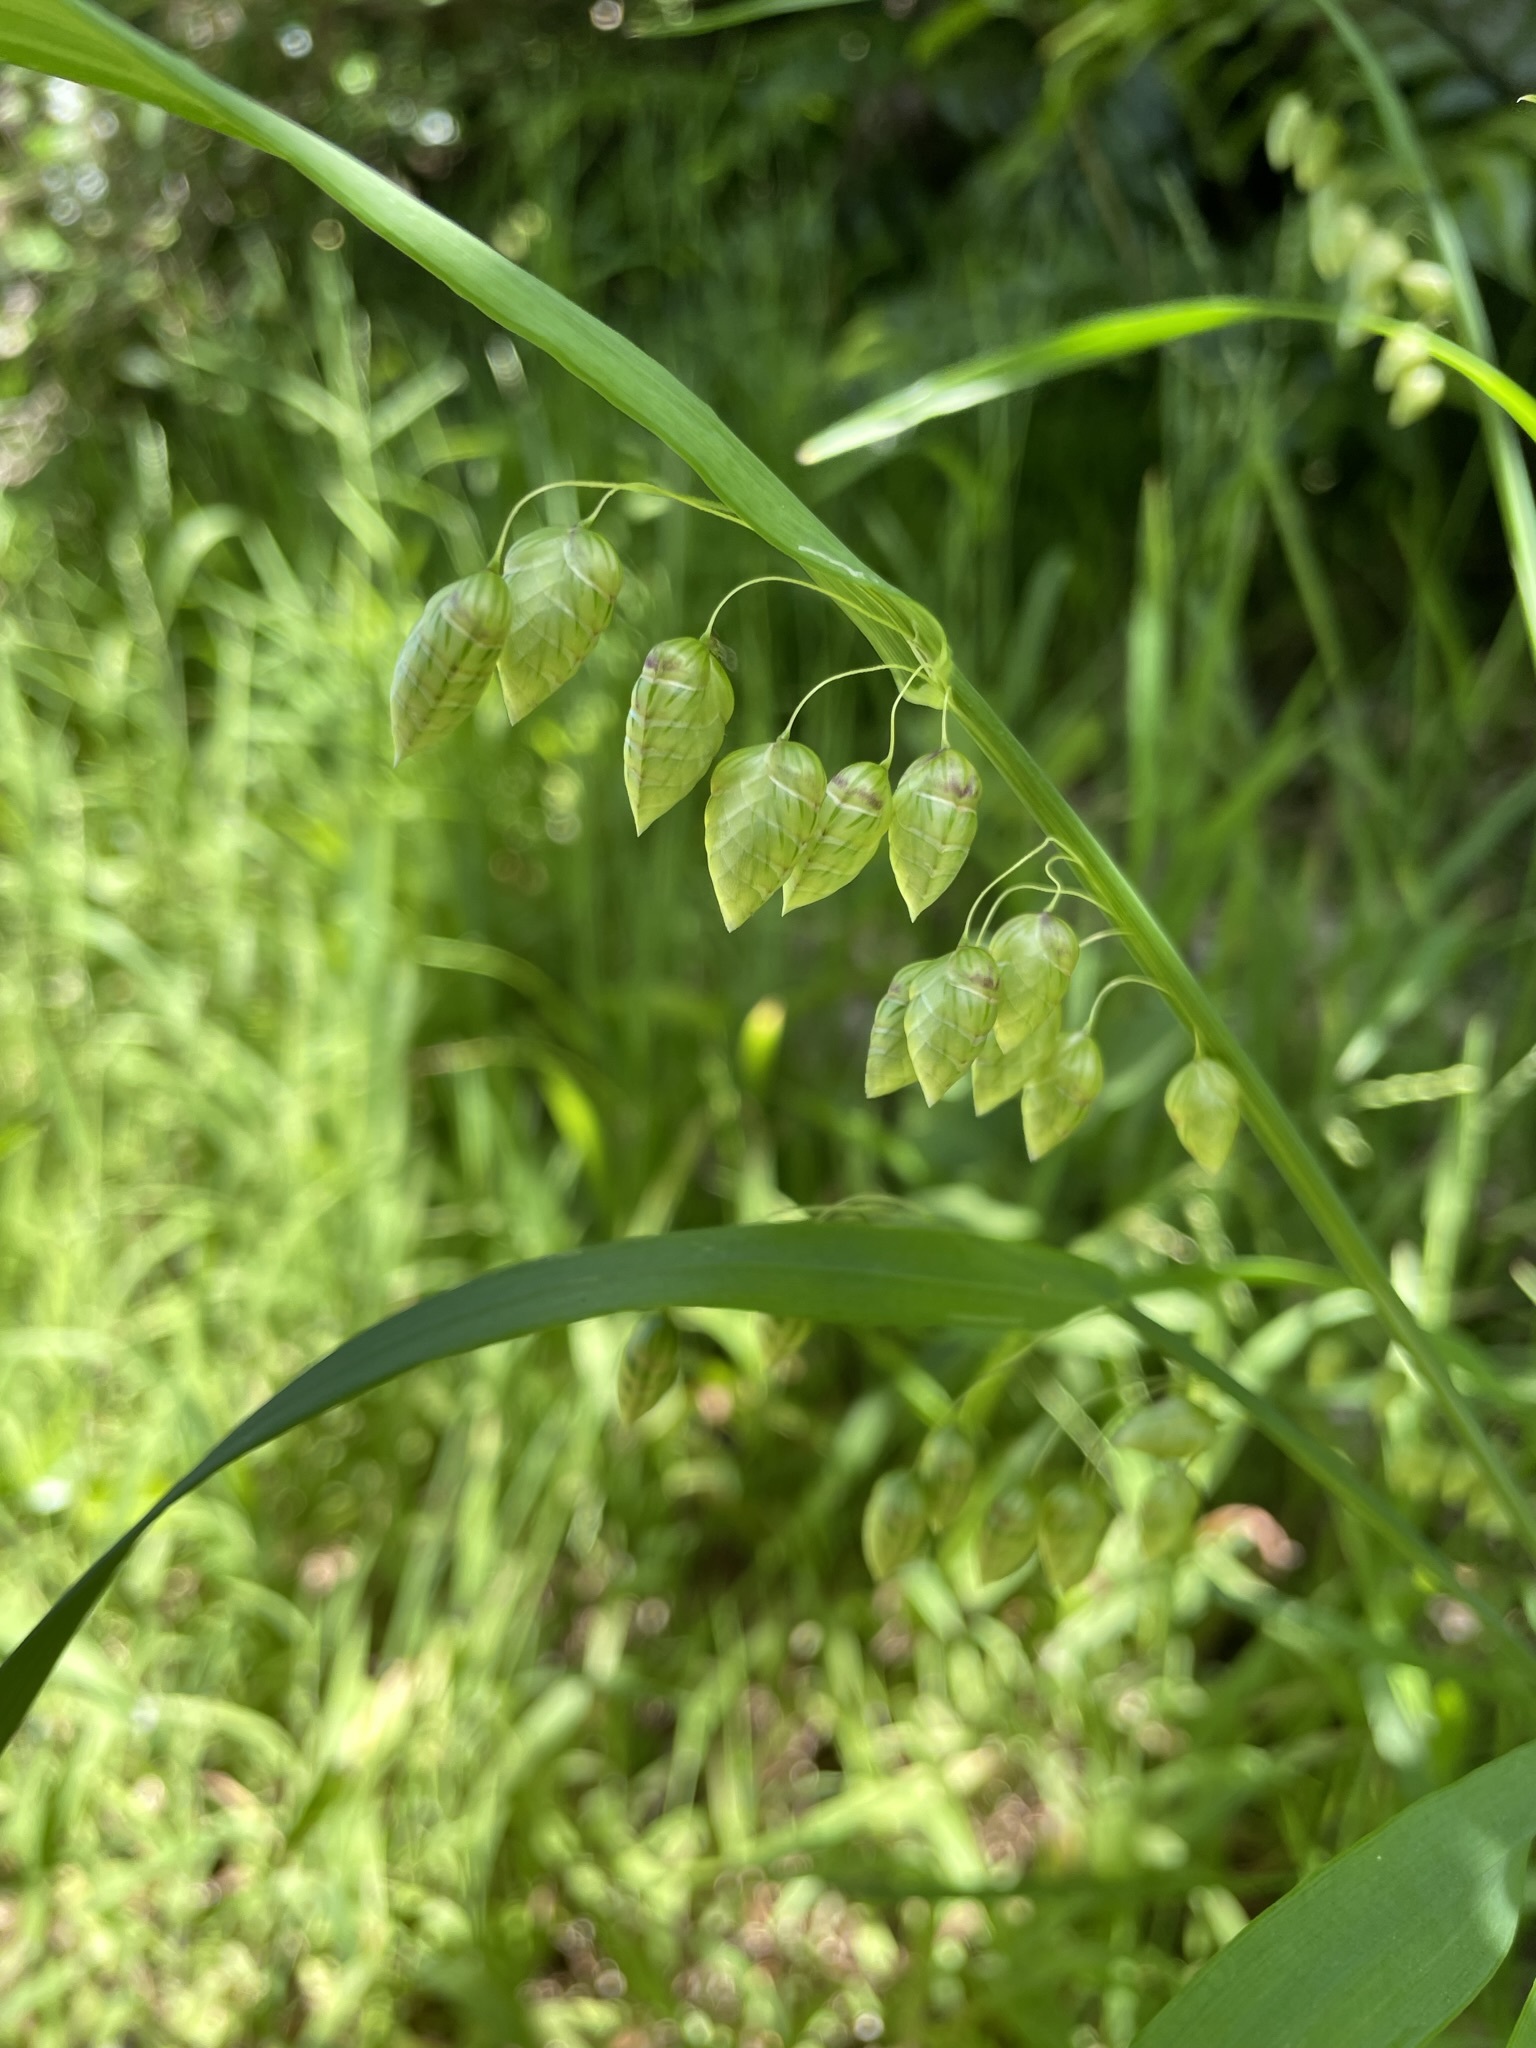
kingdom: Plantae
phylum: Tracheophyta
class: Liliopsida
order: Poales
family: Poaceae
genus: Briza
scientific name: Briza maxima
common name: Big quakinggrass
